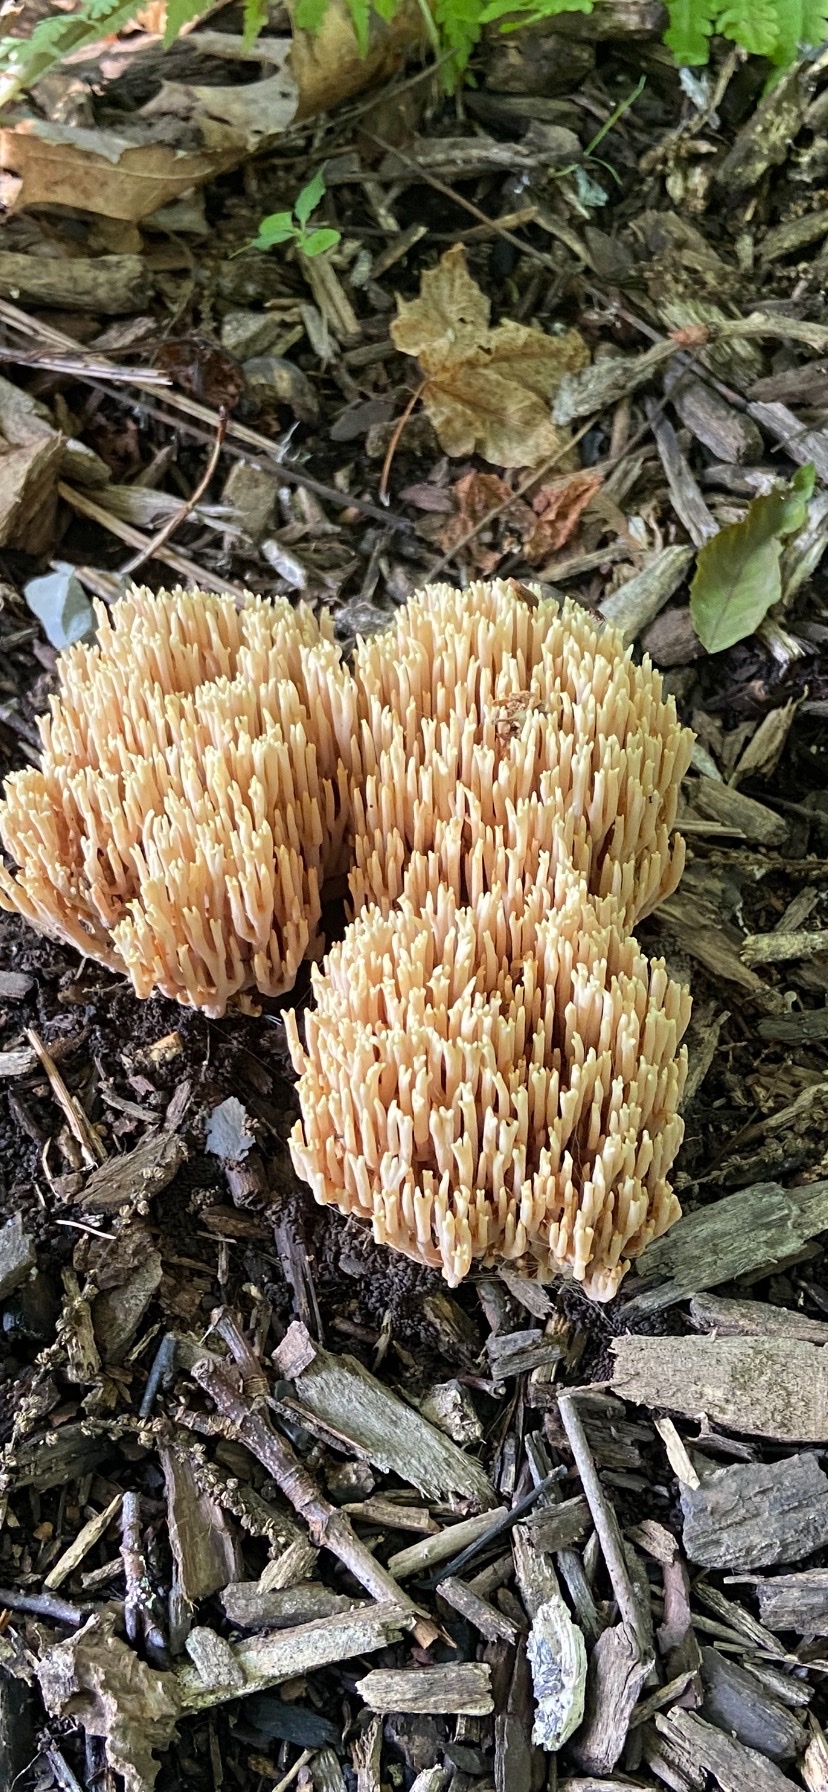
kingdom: Fungi
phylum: Basidiomycota
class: Agaricomycetes
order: Gomphales
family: Gomphaceae
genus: Ramaria
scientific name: Ramaria stricta
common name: Upright coral
